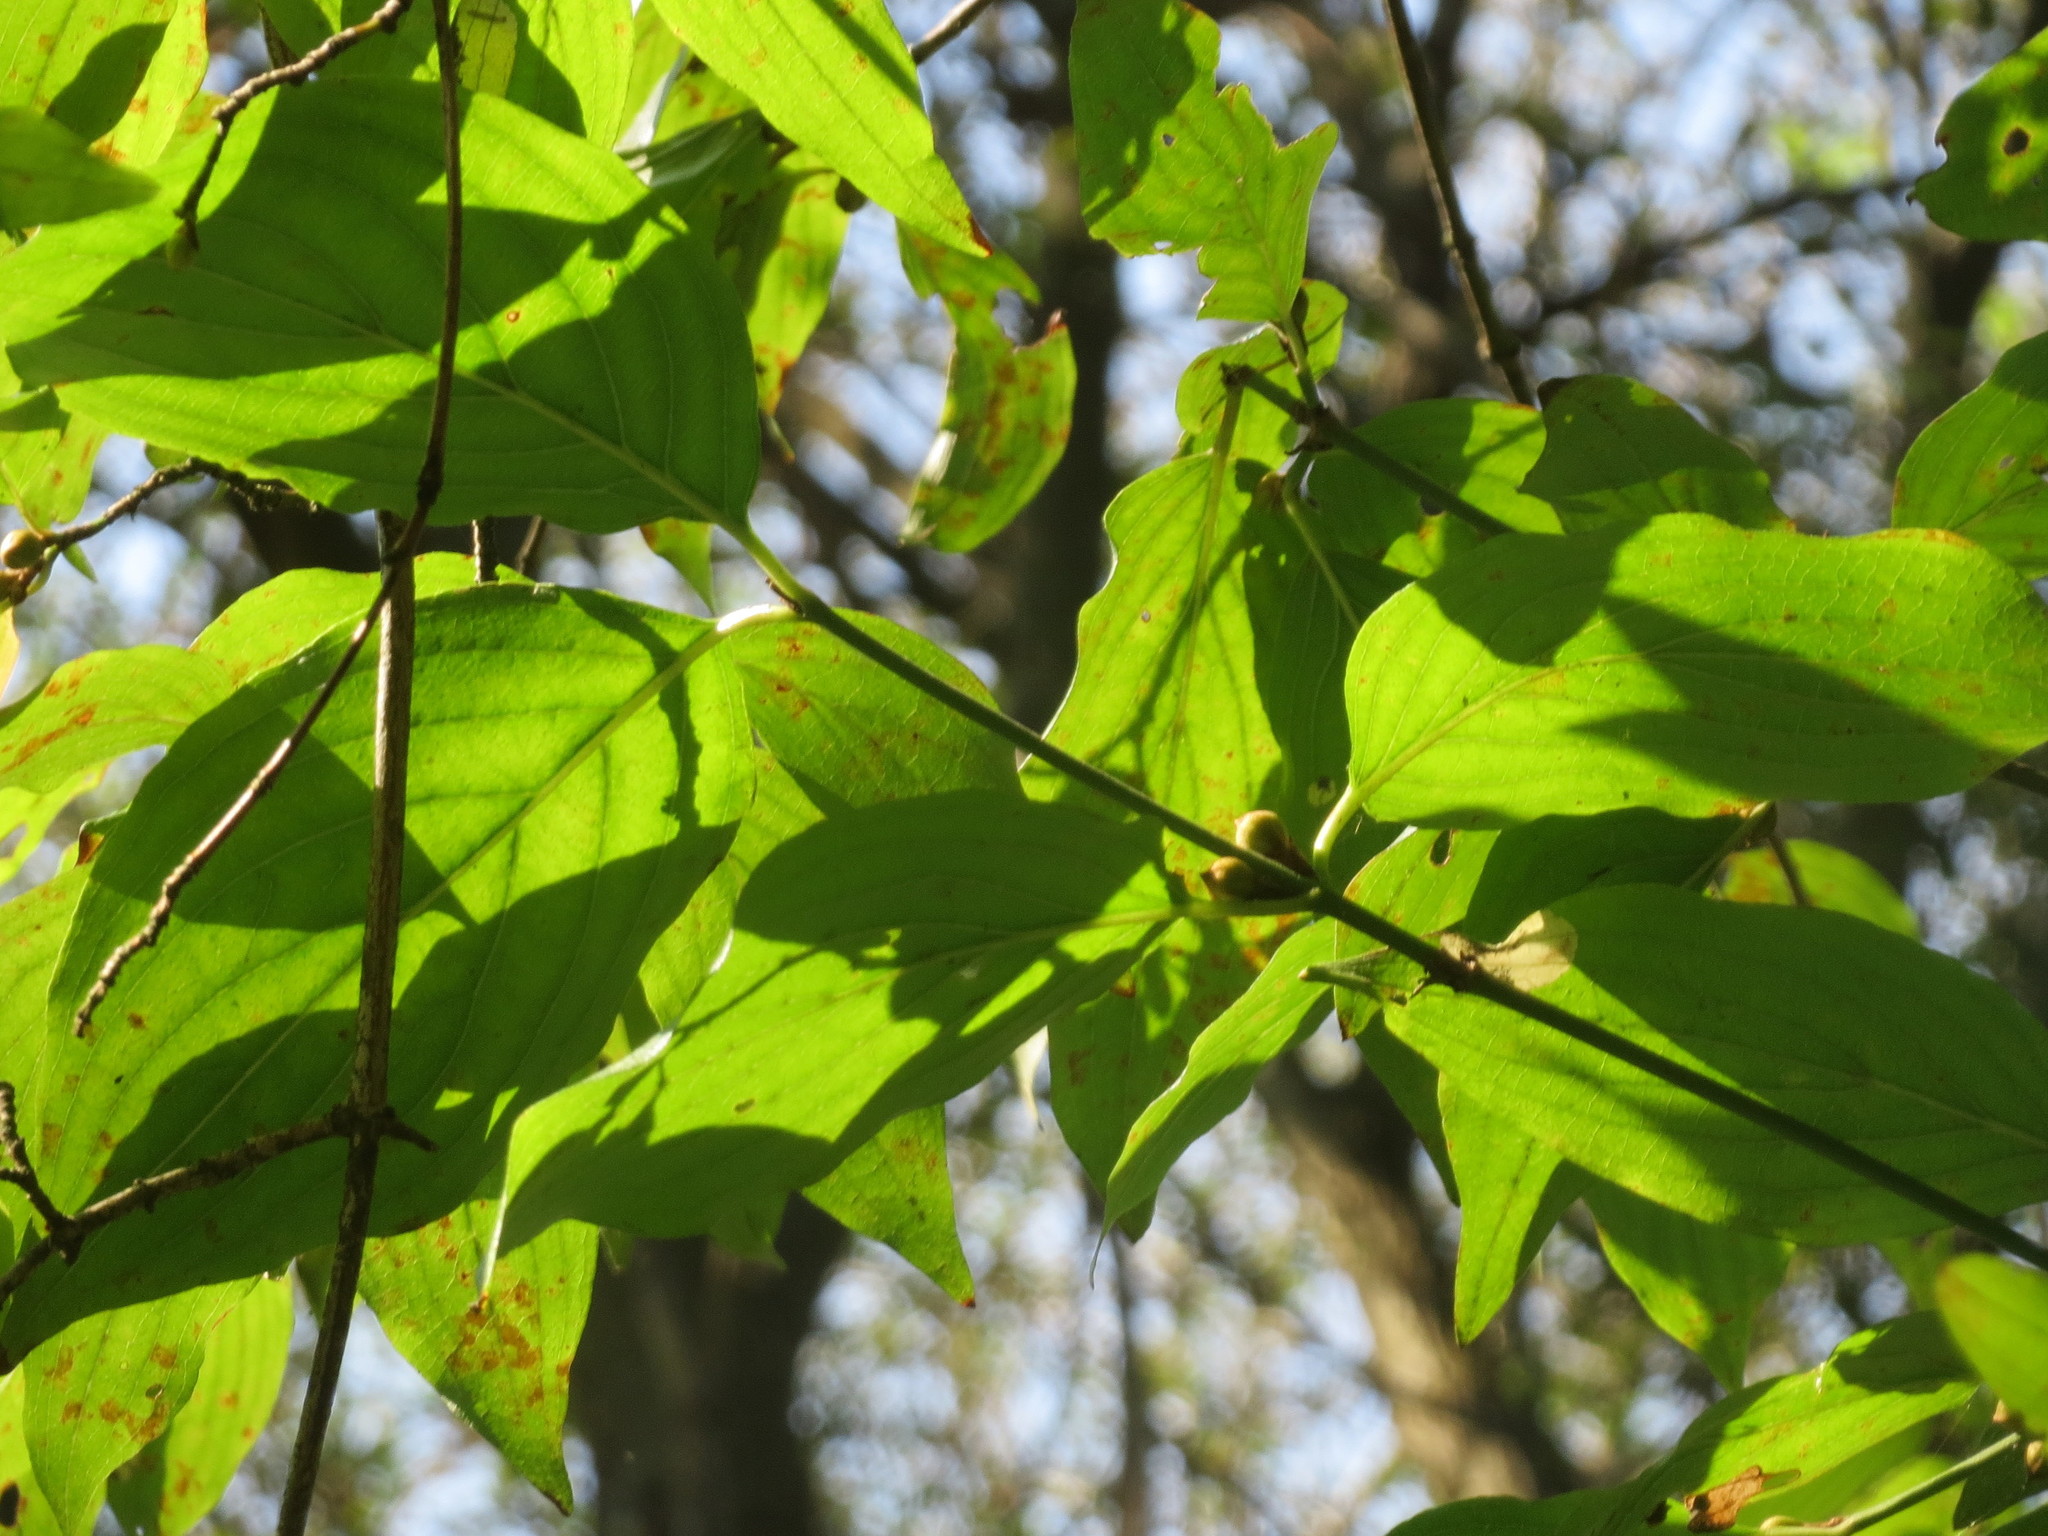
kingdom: Plantae
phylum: Tracheophyta
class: Magnoliopsida
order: Cornales
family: Cornaceae
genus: Cornus
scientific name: Cornus mas
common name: Cornelian-cherry
